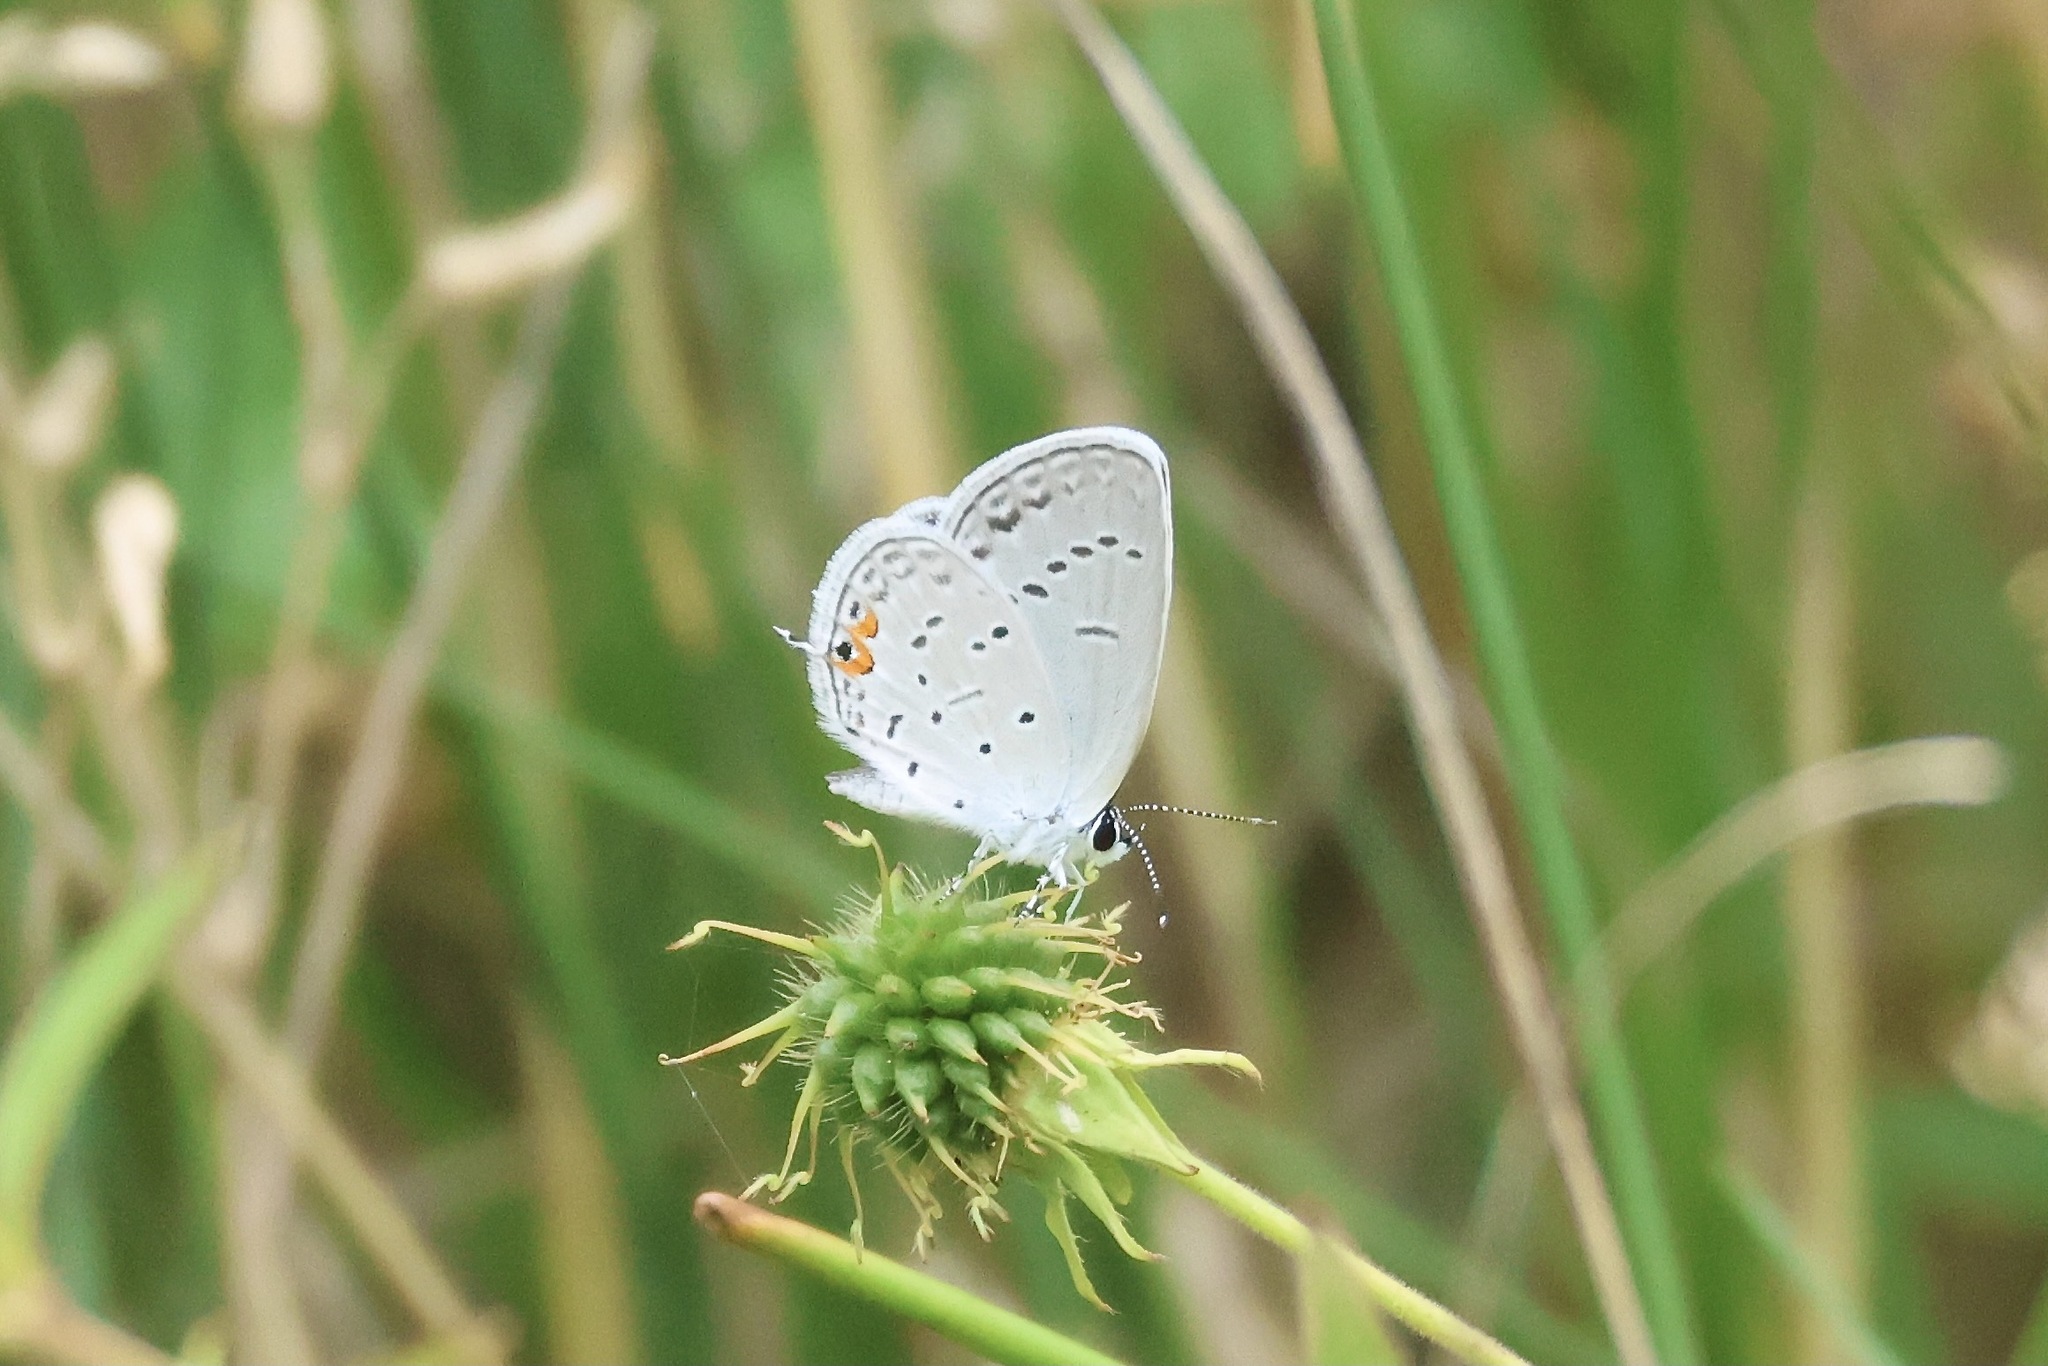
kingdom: Animalia
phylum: Arthropoda
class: Insecta
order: Lepidoptera
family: Lycaenidae
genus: Elkalyce
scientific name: Elkalyce comyntas
